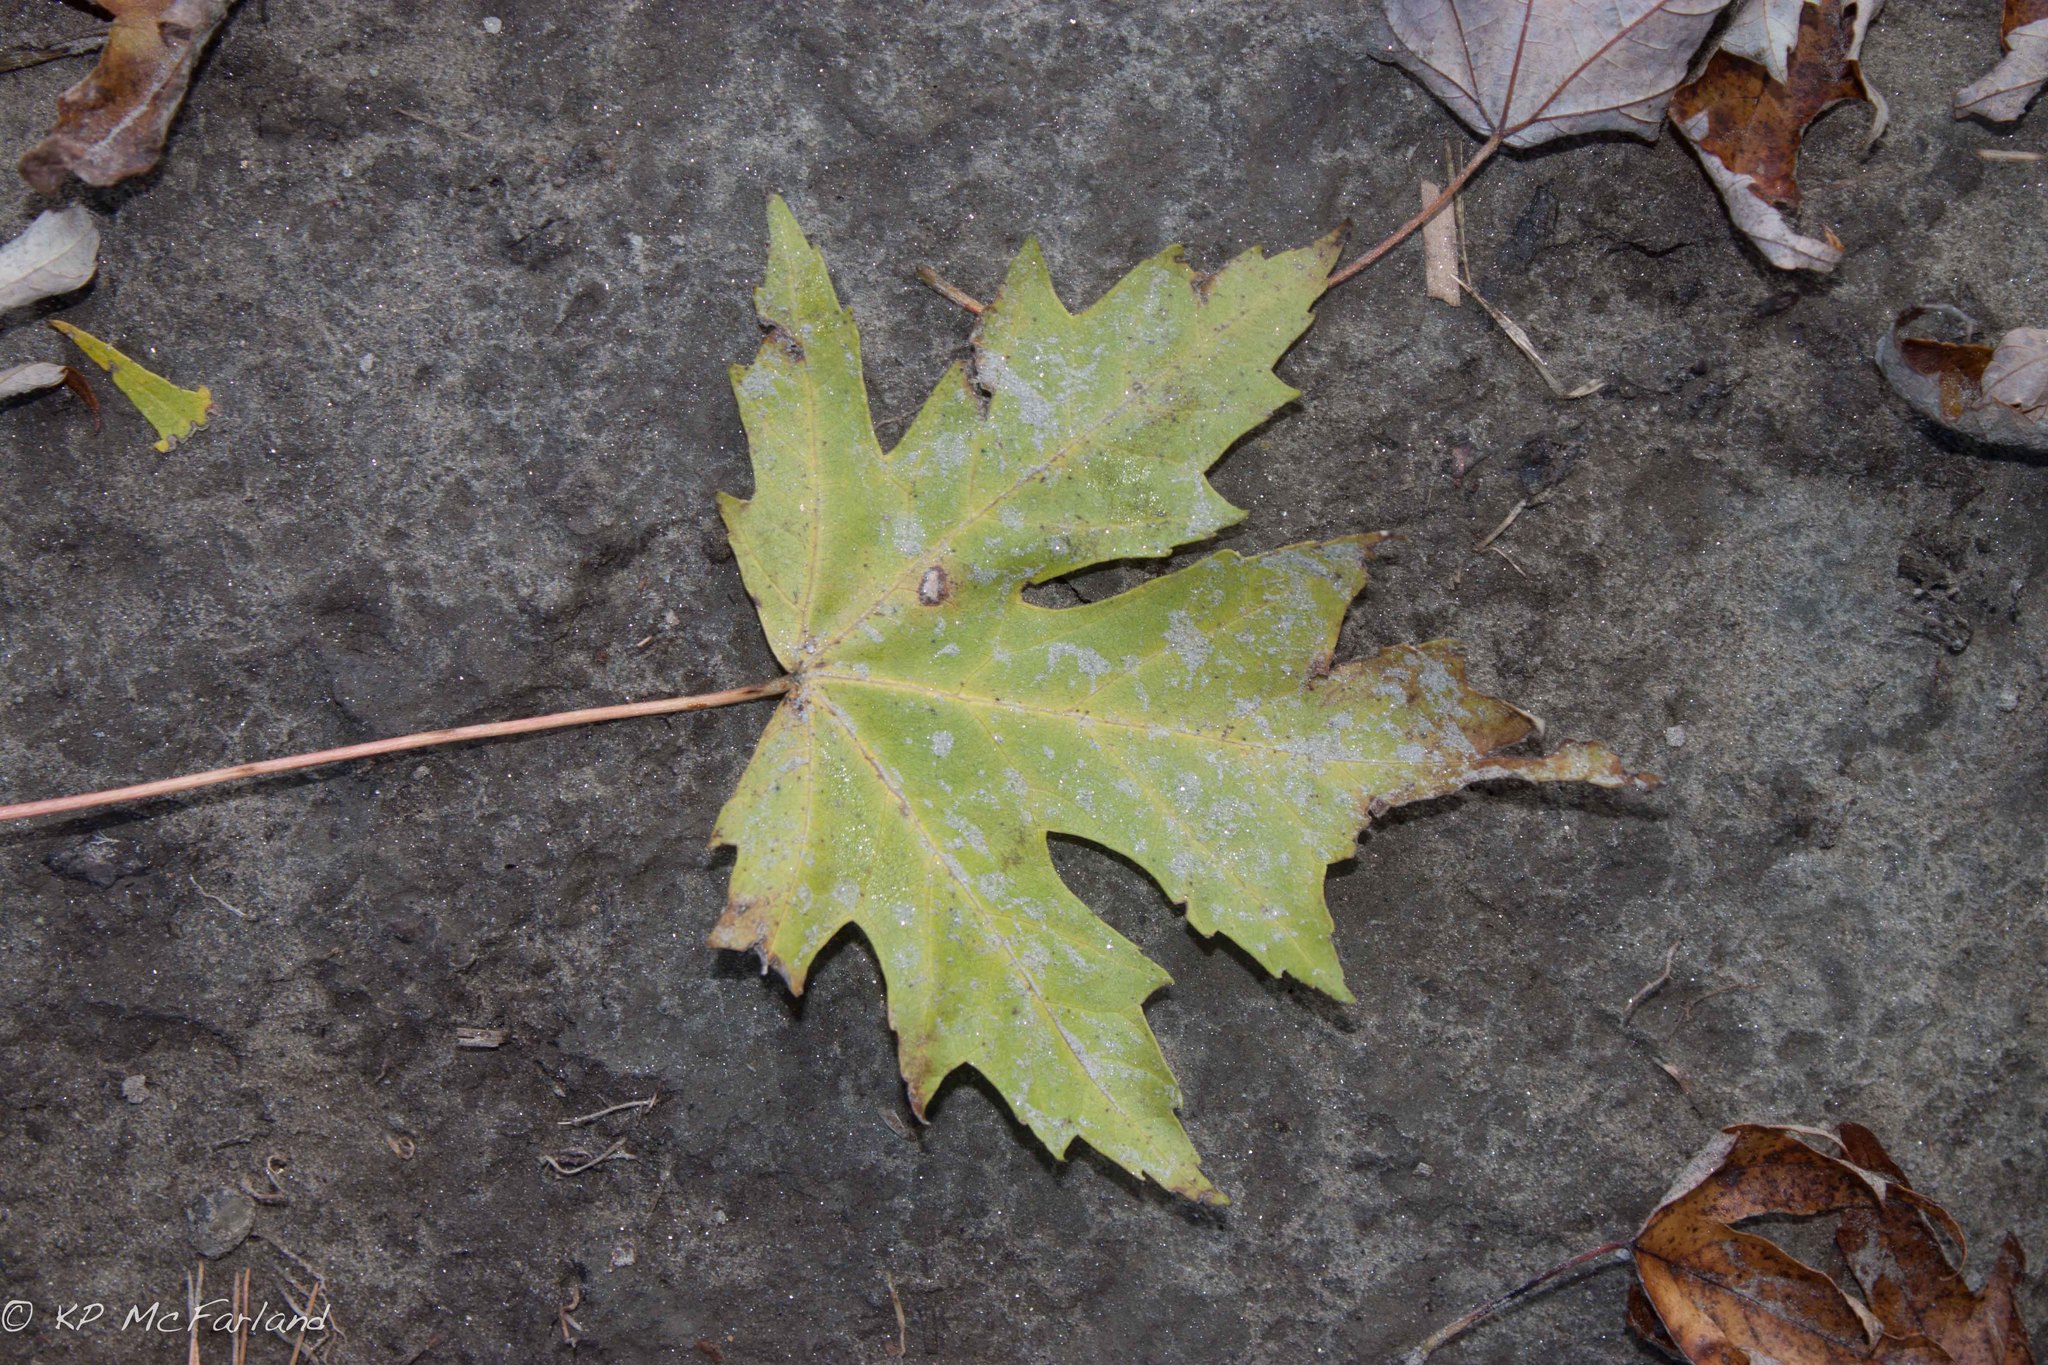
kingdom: Plantae
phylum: Tracheophyta
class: Magnoliopsida
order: Sapindales
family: Sapindaceae
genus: Acer
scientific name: Acer saccharinum
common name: Silver maple
